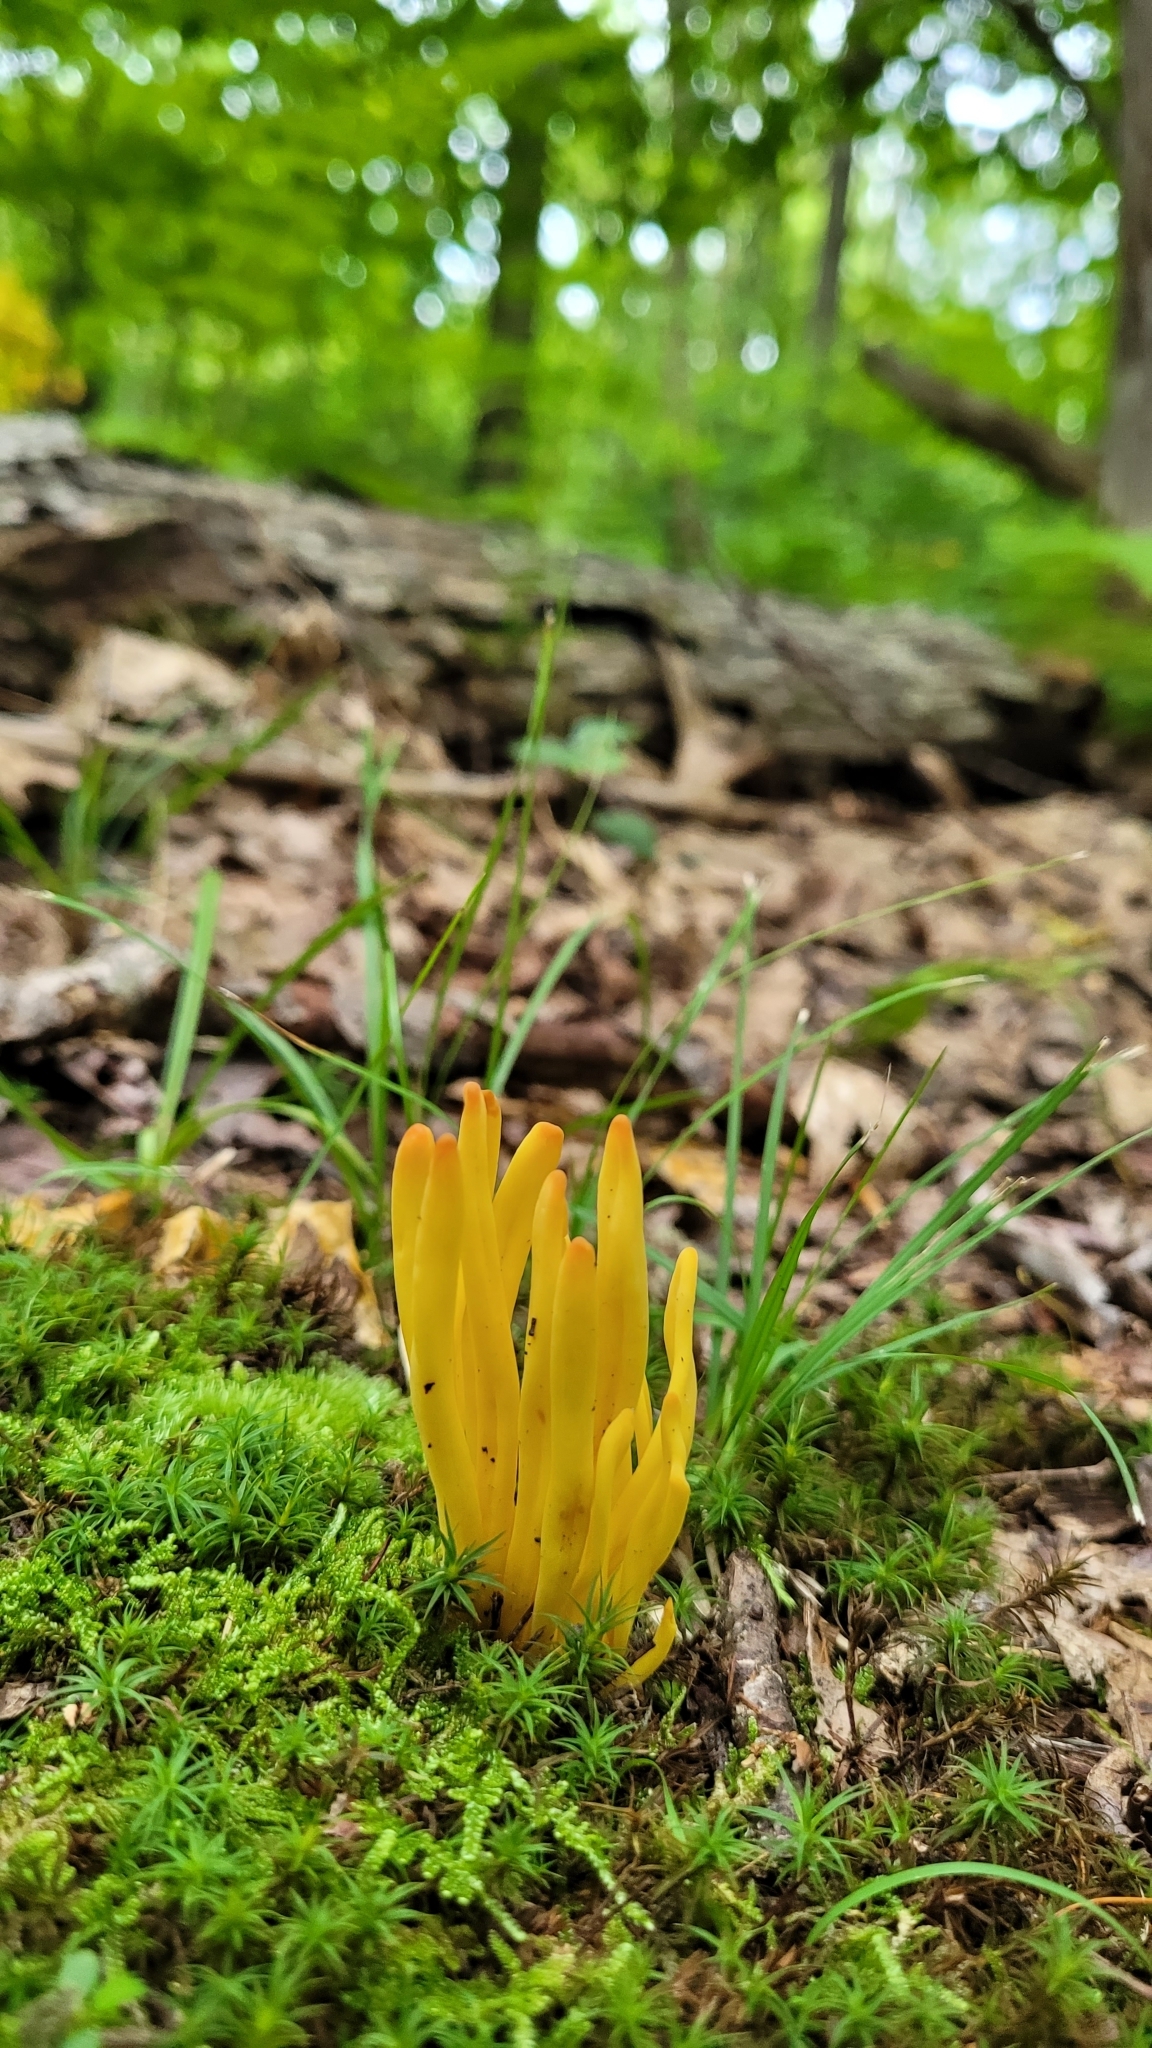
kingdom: Fungi
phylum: Basidiomycota
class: Agaricomycetes
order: Agaricales
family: Clavariaceae
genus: Clavulinopsis
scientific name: Clavulinopsis fusiformis
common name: Golden spindles
